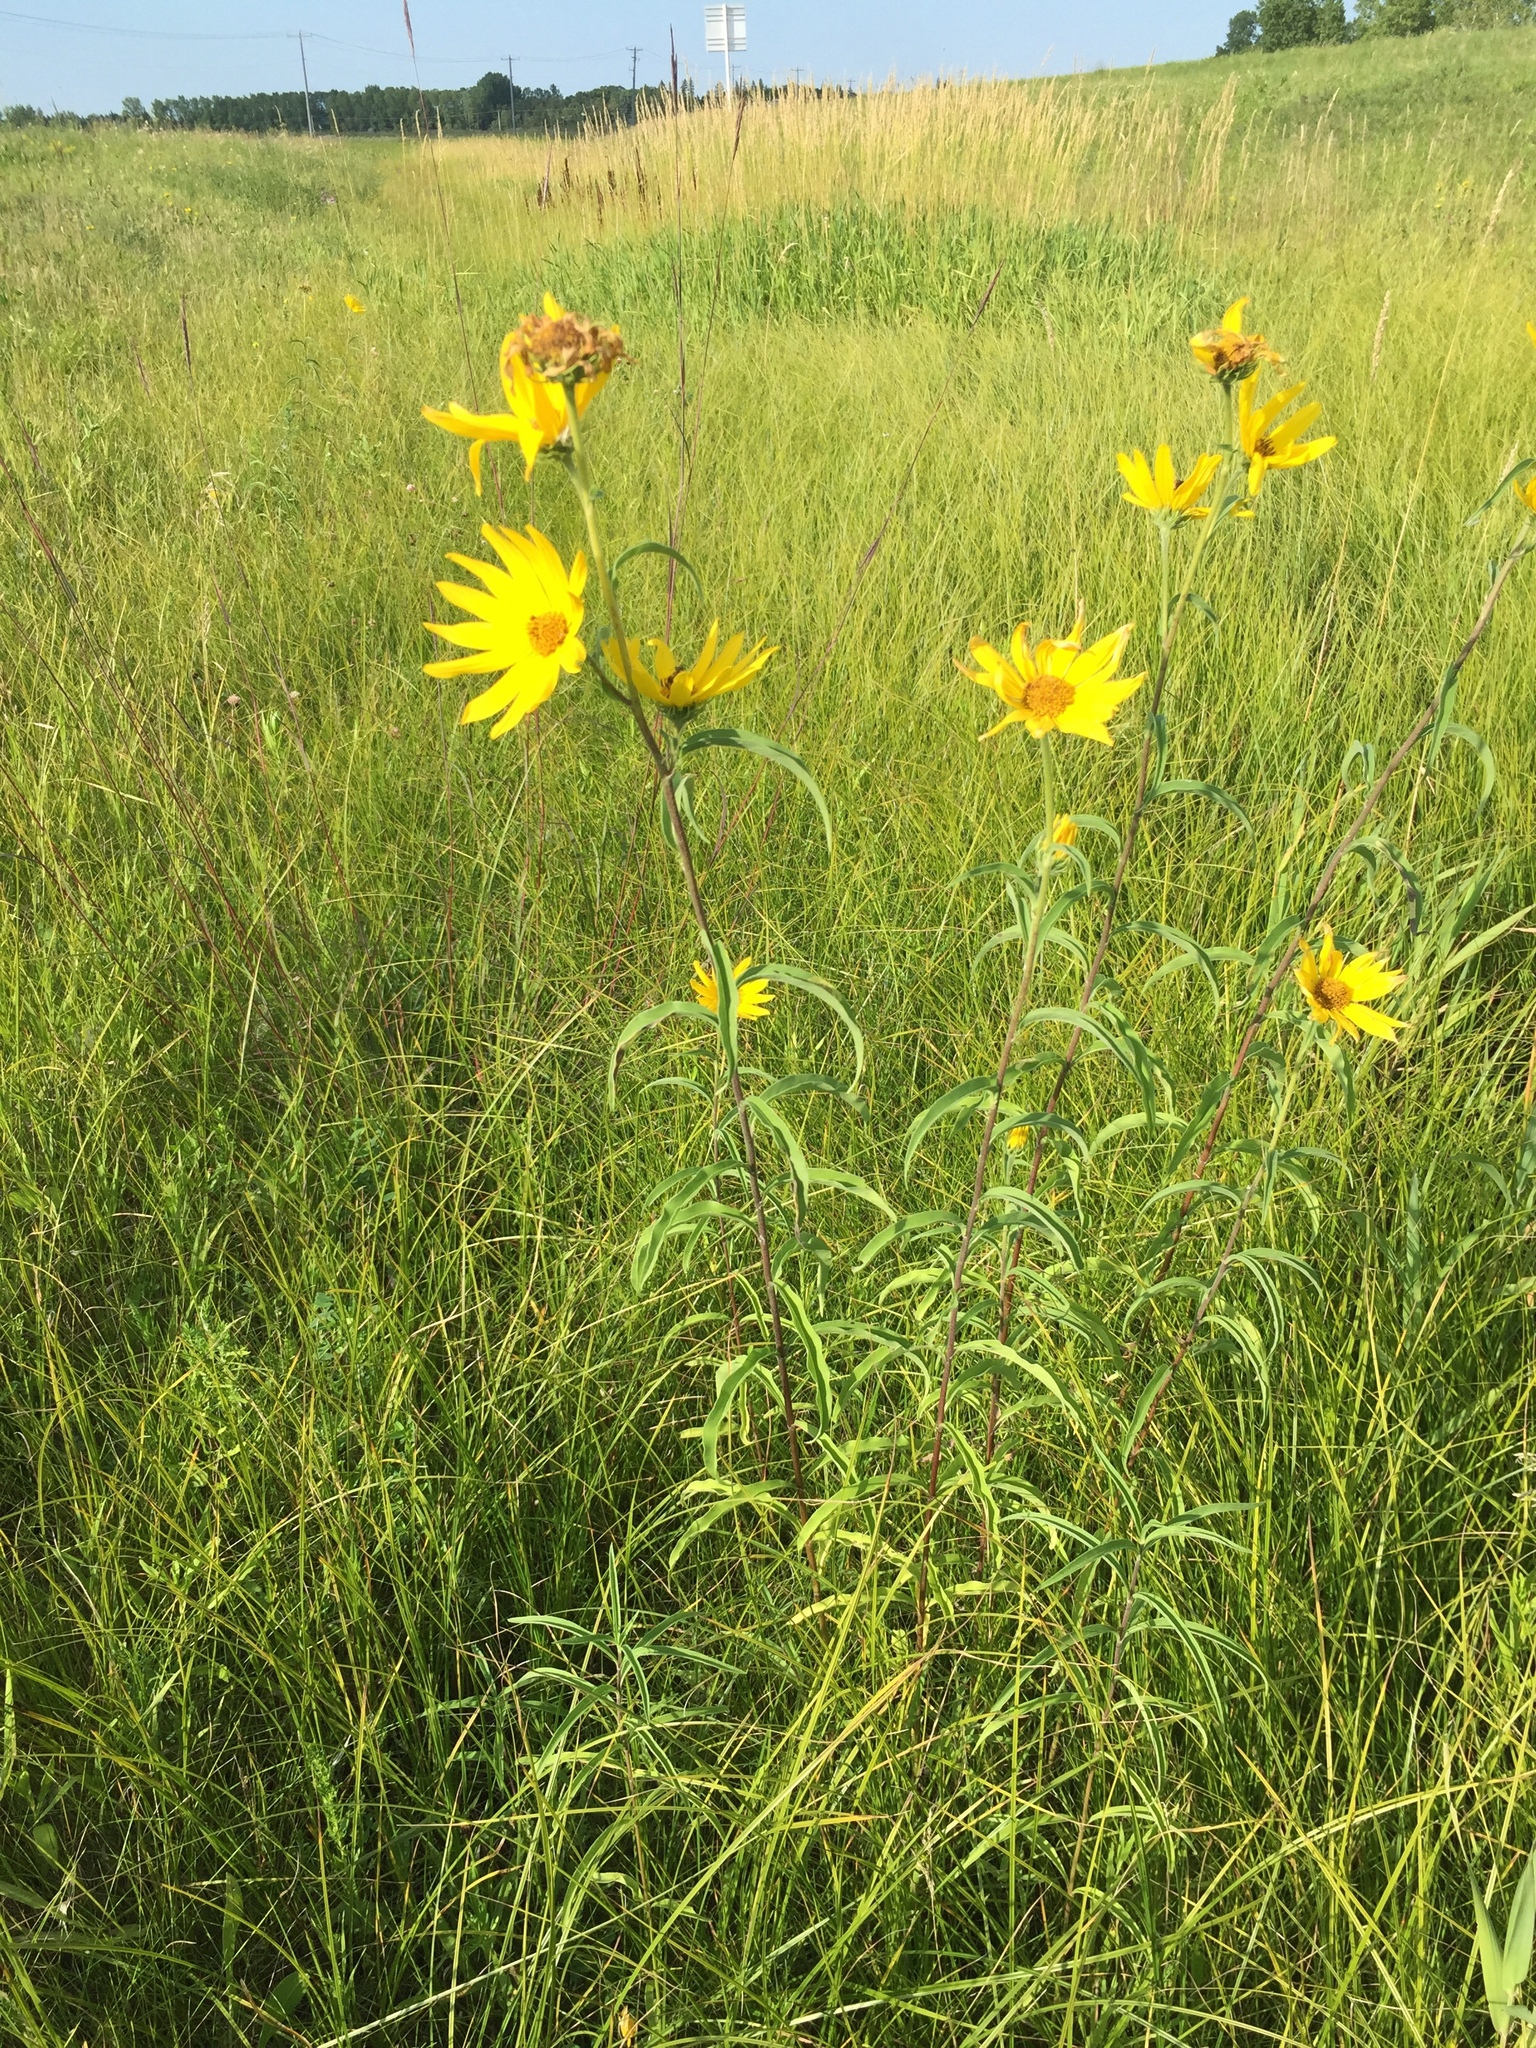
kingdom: Plantae
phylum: Tracheophyta
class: Magnoliopsida
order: Asterales
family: Asteraceae
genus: Helianthus
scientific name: Helianthus maximiliani
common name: Maximilian's sunflower
